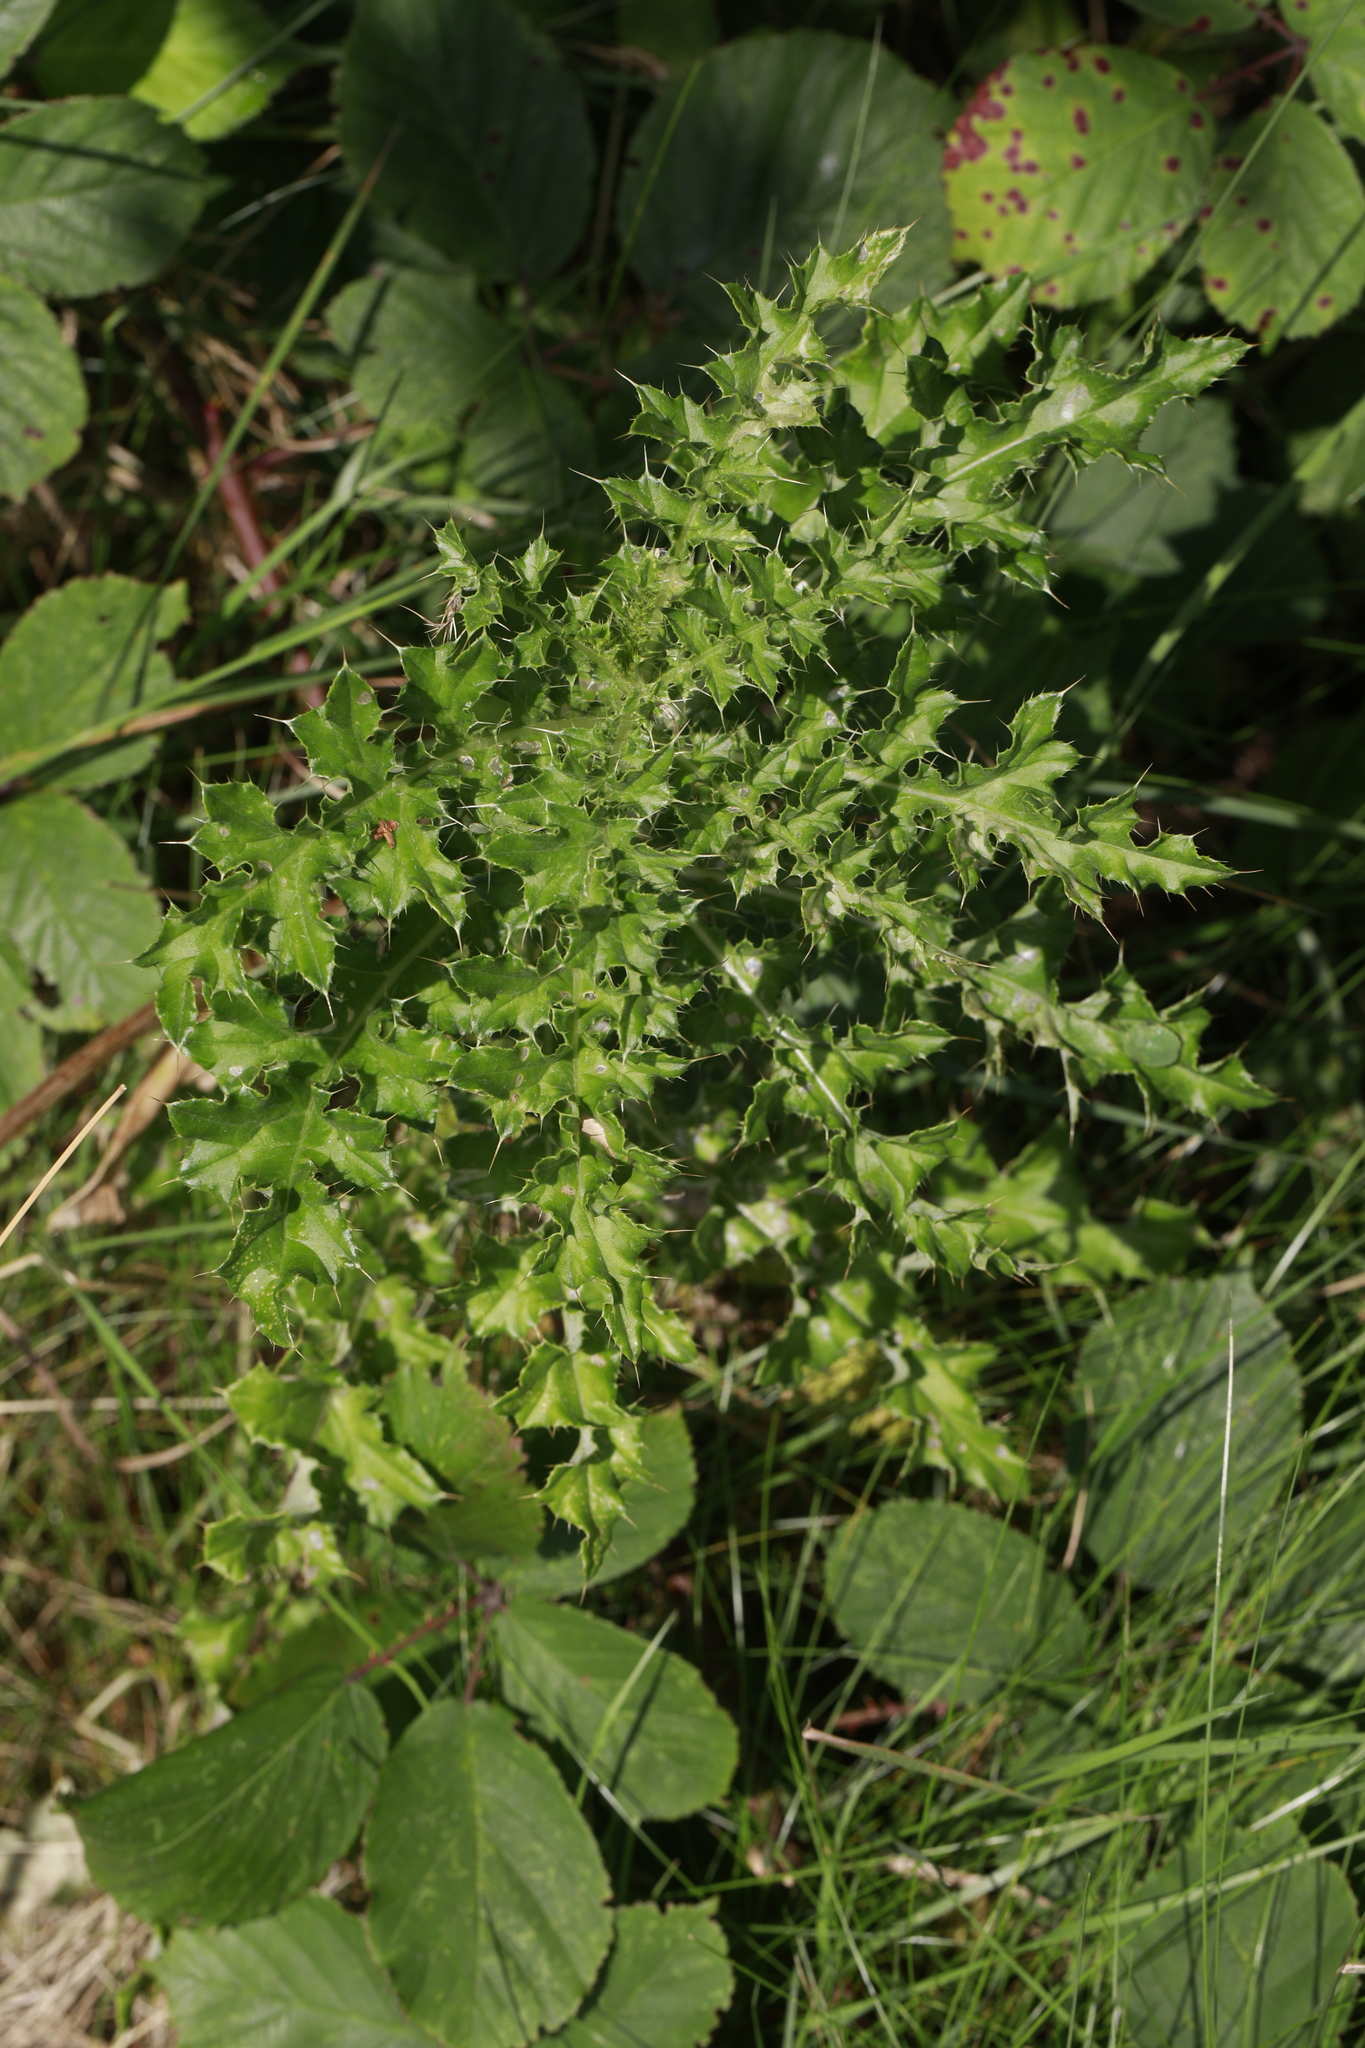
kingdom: Plantae
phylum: Tracheophyta
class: Magnoliopsida
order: Asterales
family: Asteraceae
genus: Cirsium
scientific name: Cirsium arvense
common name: Creeping thistle
